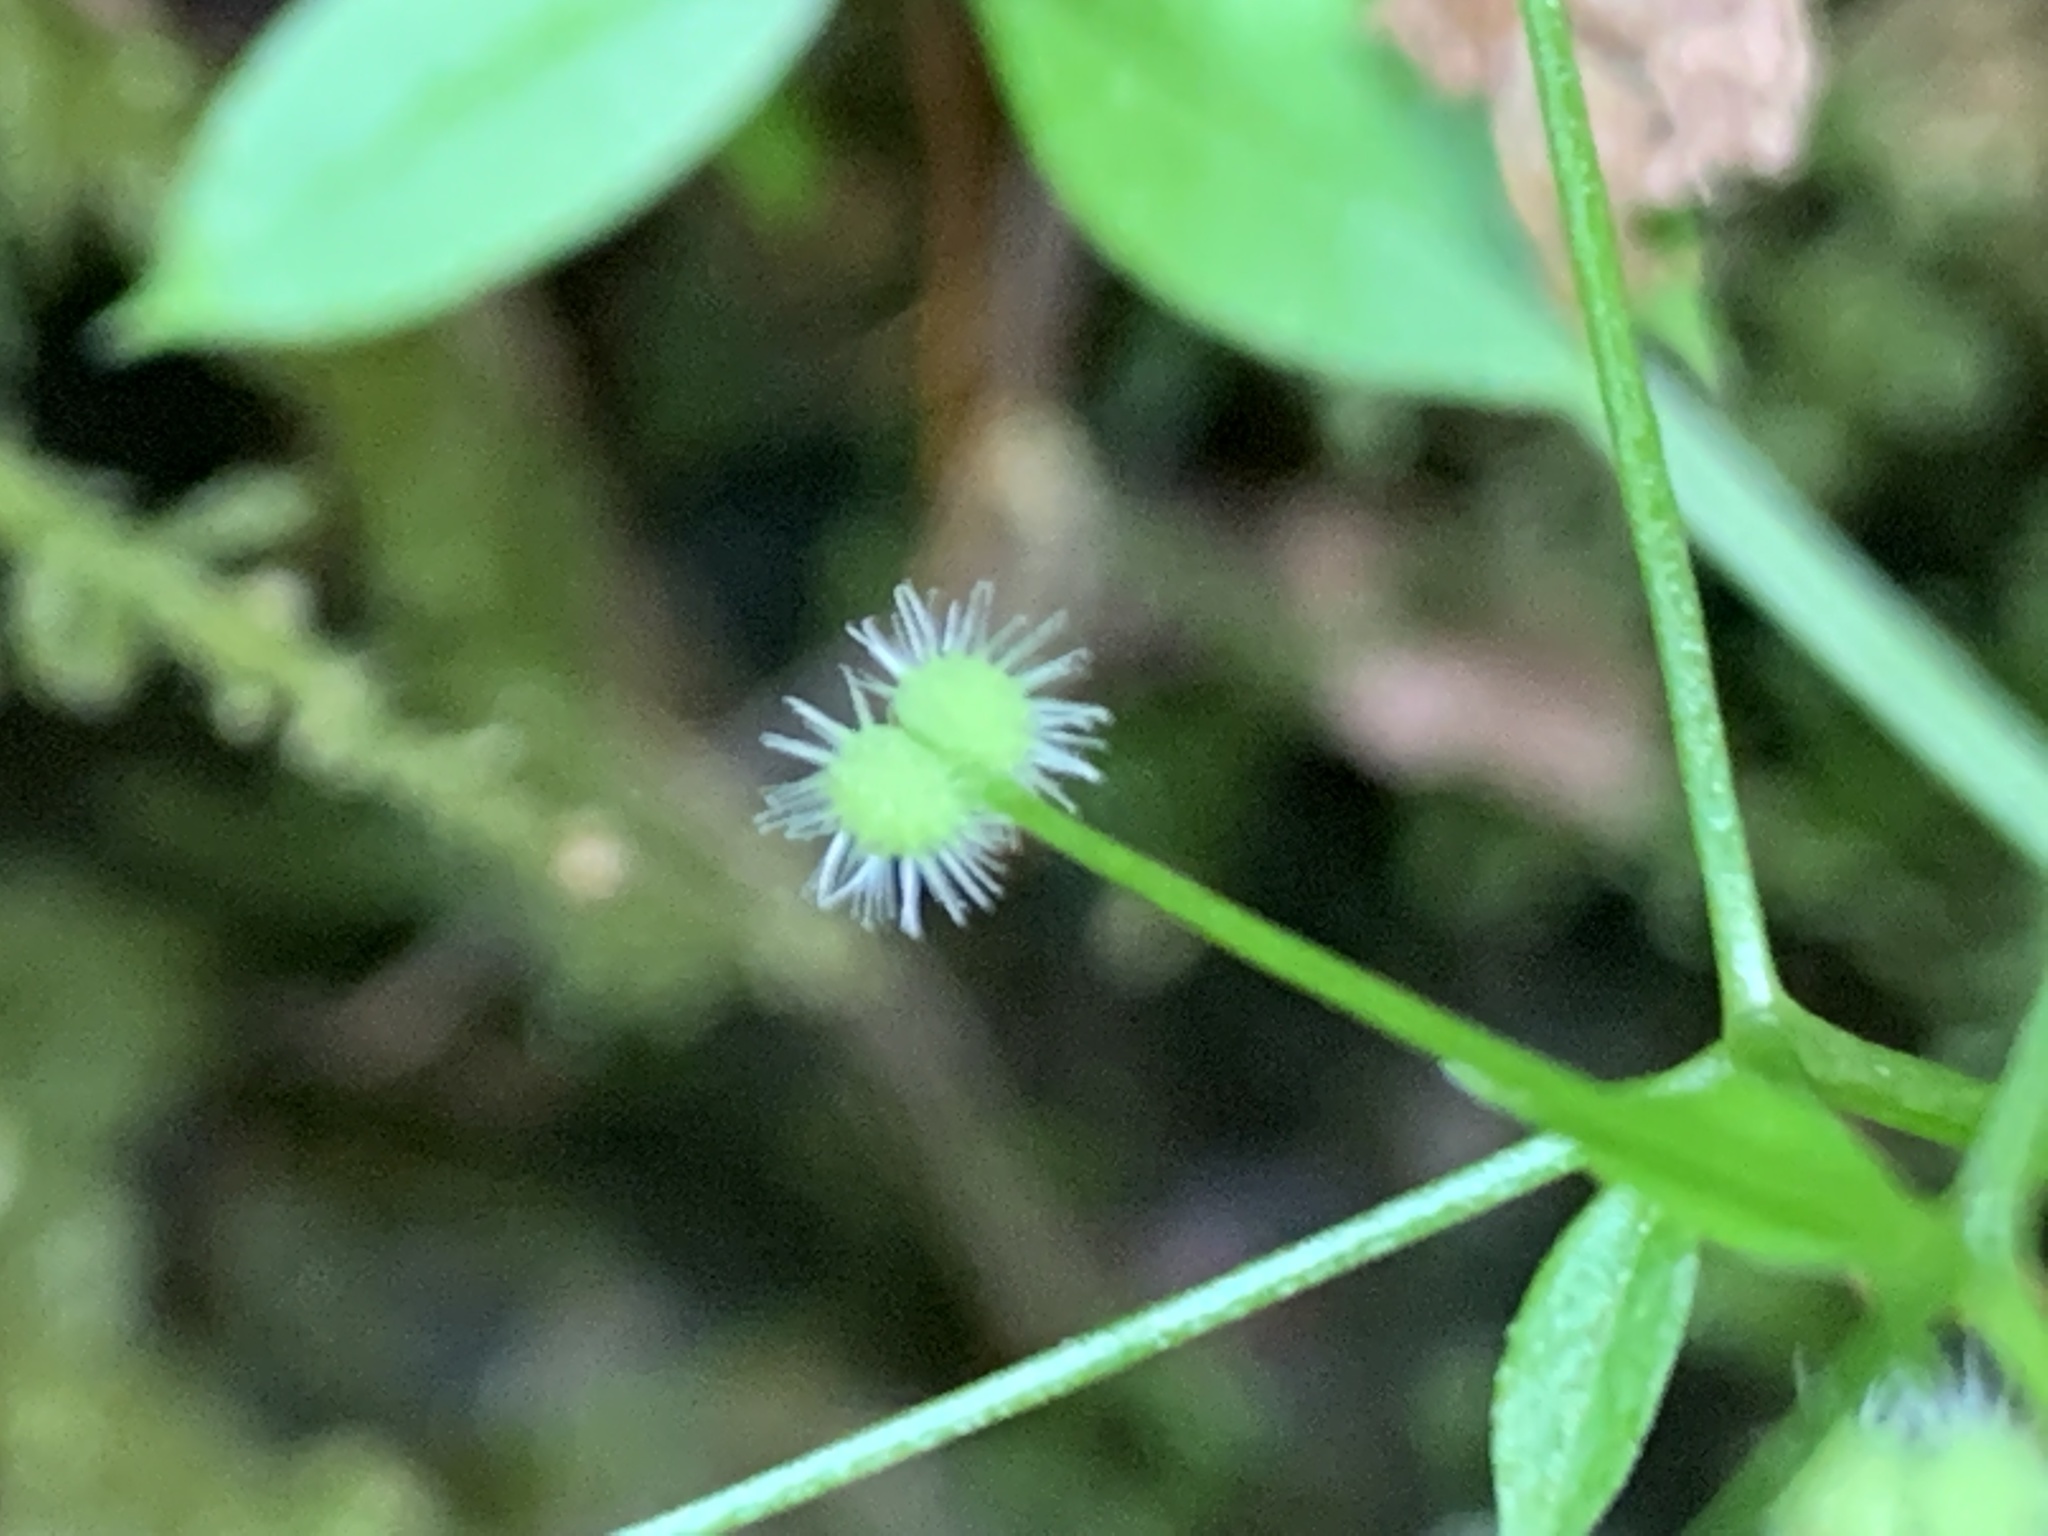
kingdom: Plantae
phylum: Tracheophyta
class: Magnoliopsida
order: Gentianales
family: Rubiaceae
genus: Galium
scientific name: Galium triflorum
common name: Fragrant bedstraw
